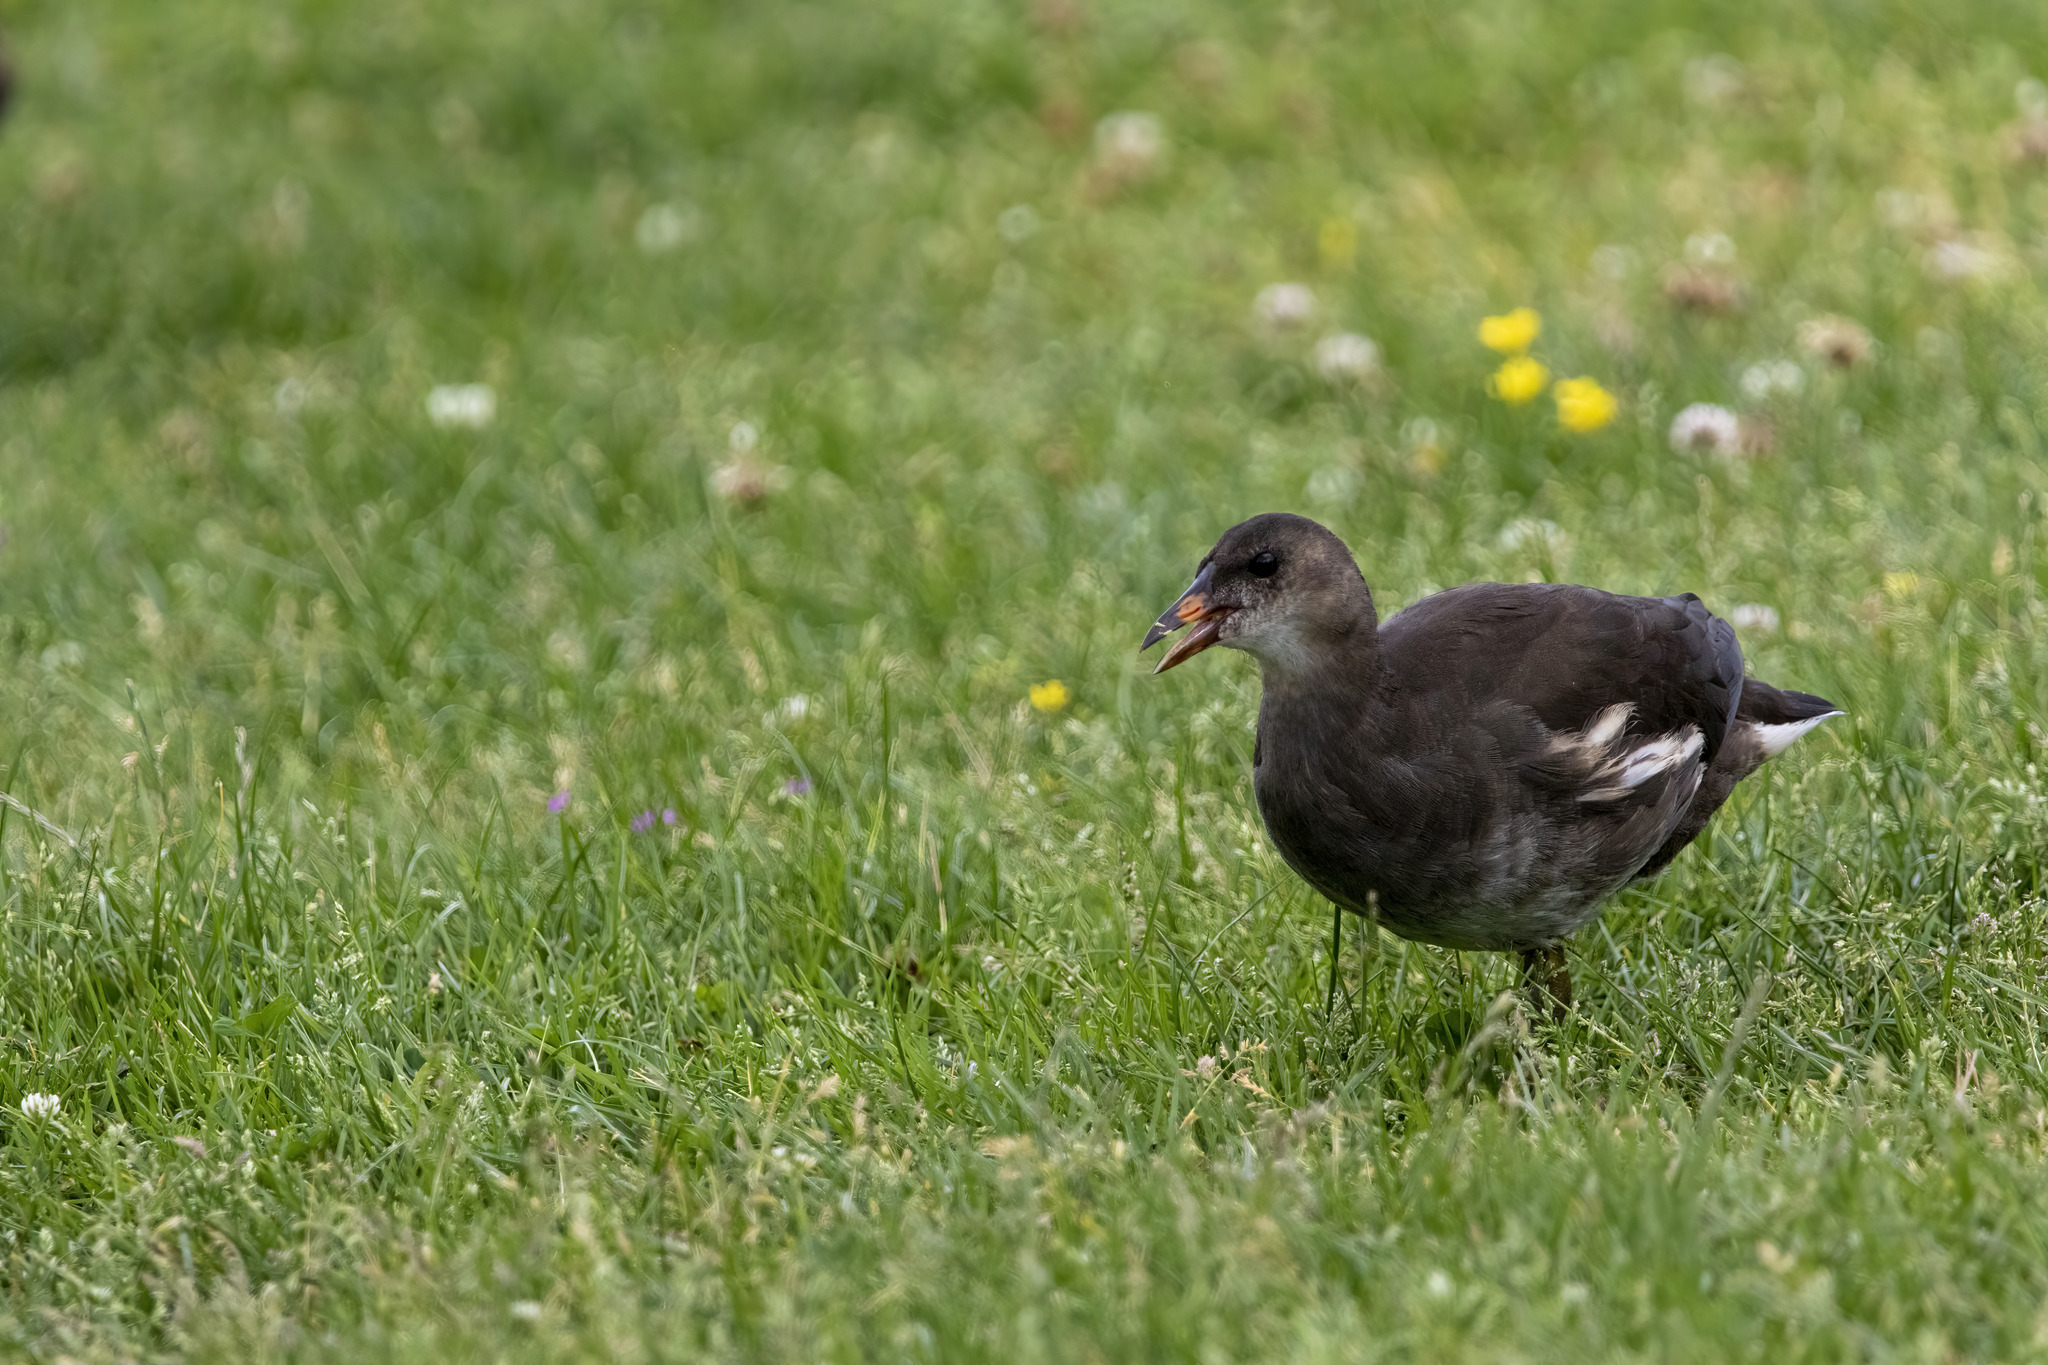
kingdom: Animalia
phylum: Chordata
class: Aves
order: Gruiformes
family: Rallidae
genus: Gallinula
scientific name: Gallinula chloropus
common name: Common moorhen
